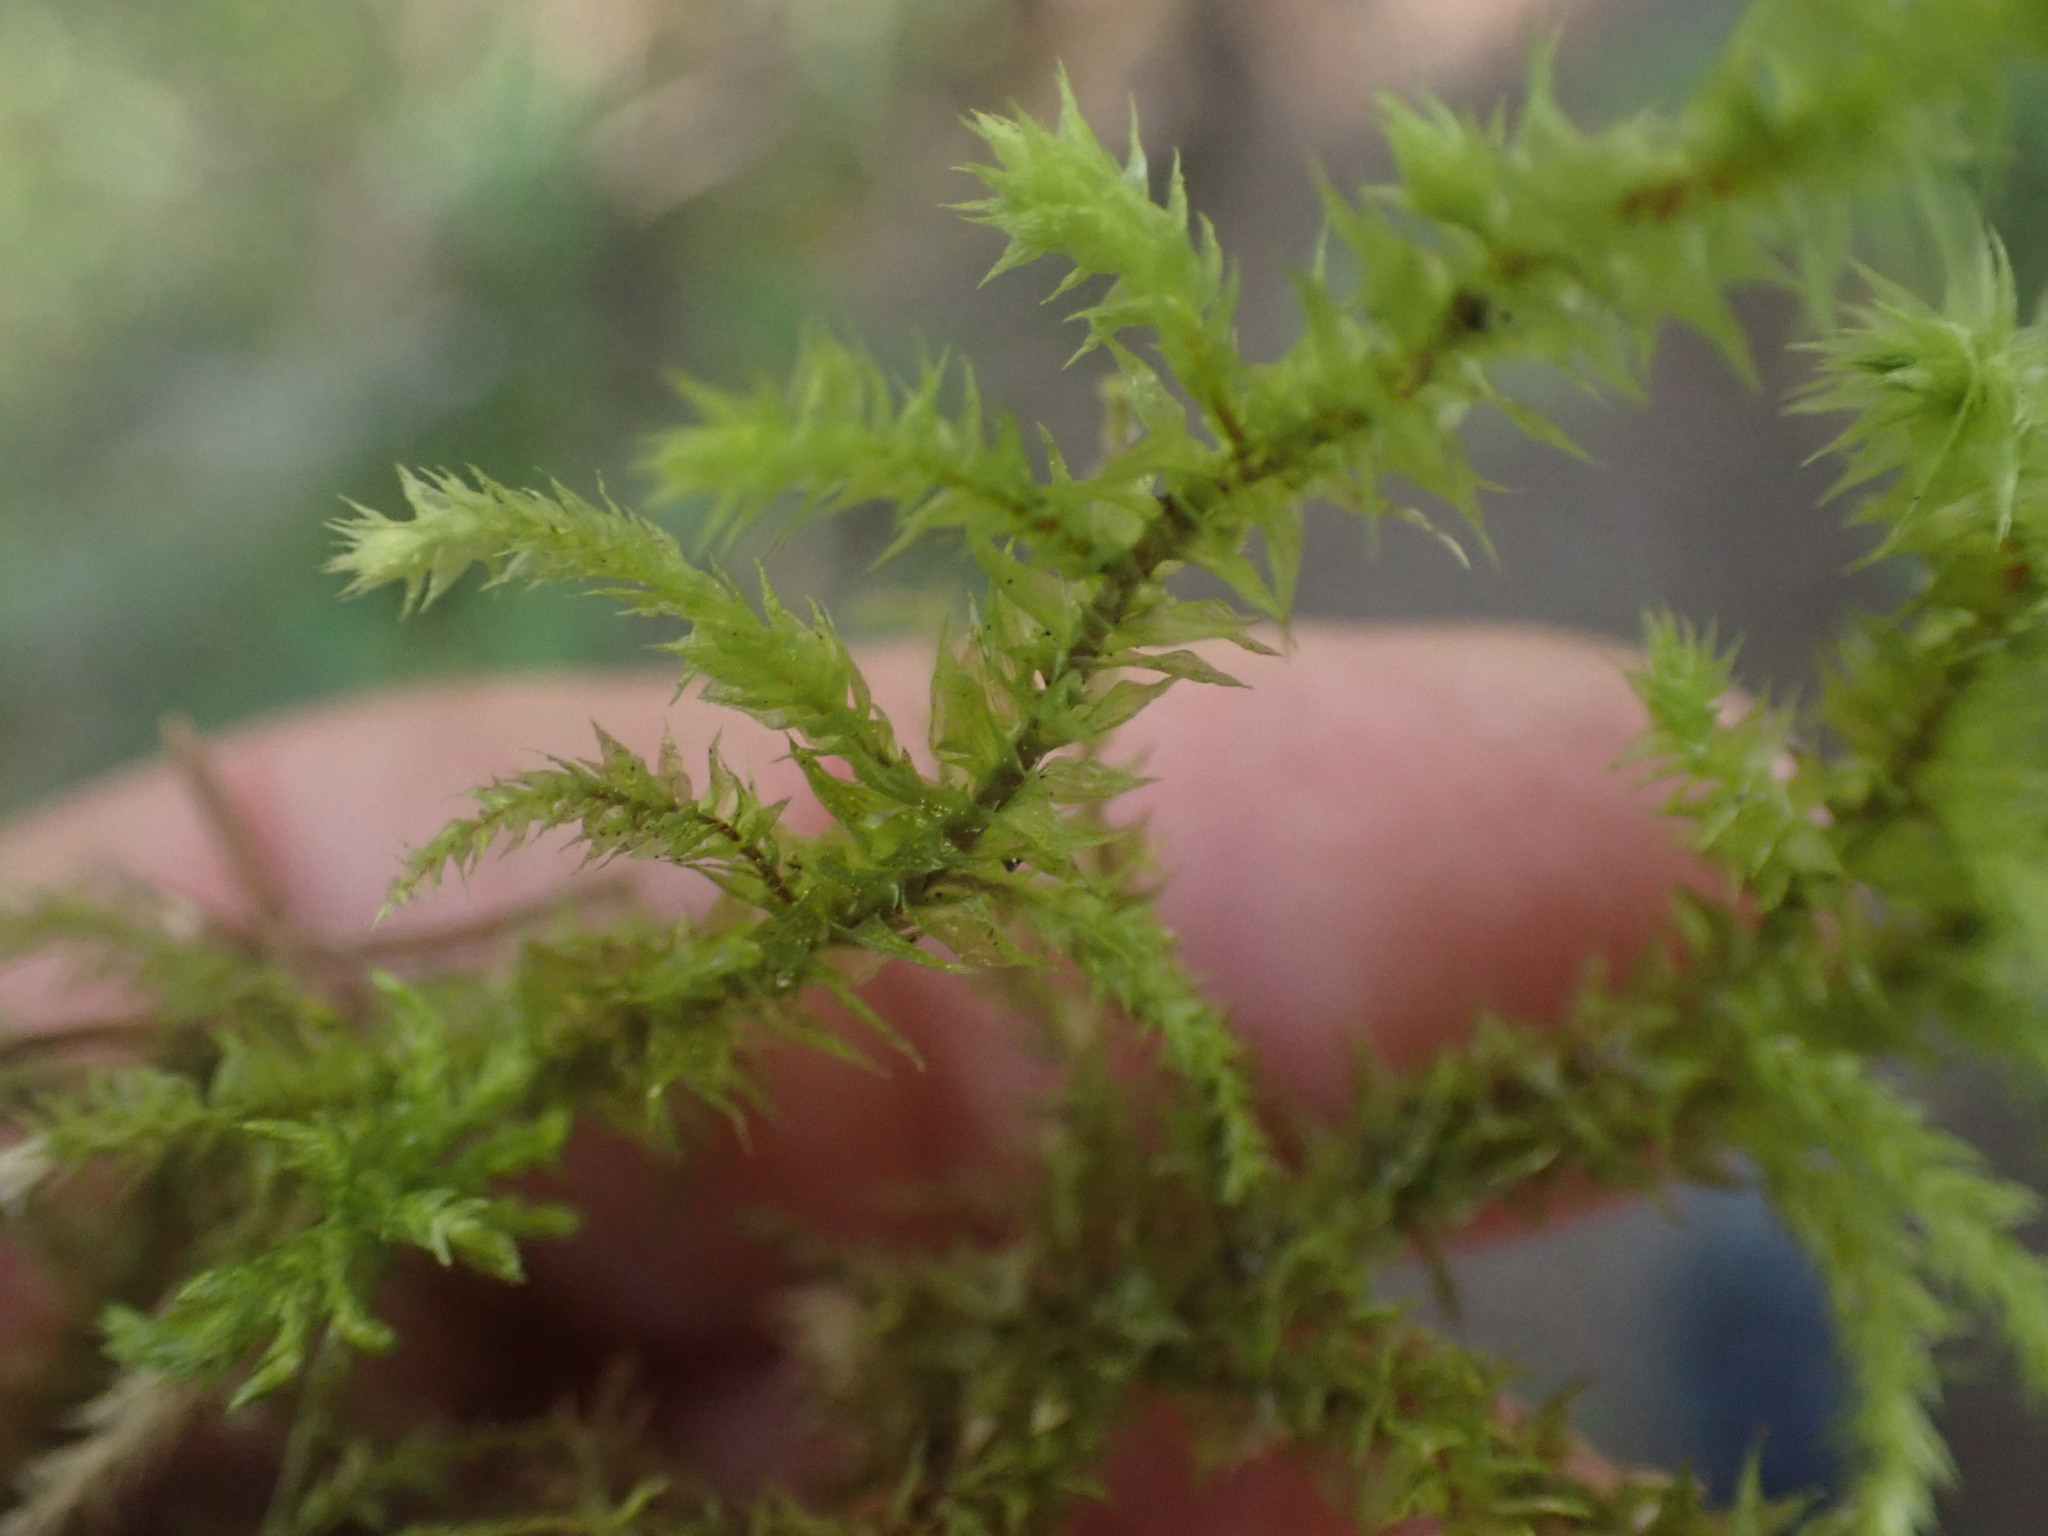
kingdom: Plantae
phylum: Bryophyta
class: Bryopsida
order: Hypnales
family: Hylocomiaceae
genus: Hylocomiadelphus
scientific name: Hylocomiadelphus triquetrus
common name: Rough goose neck moss
